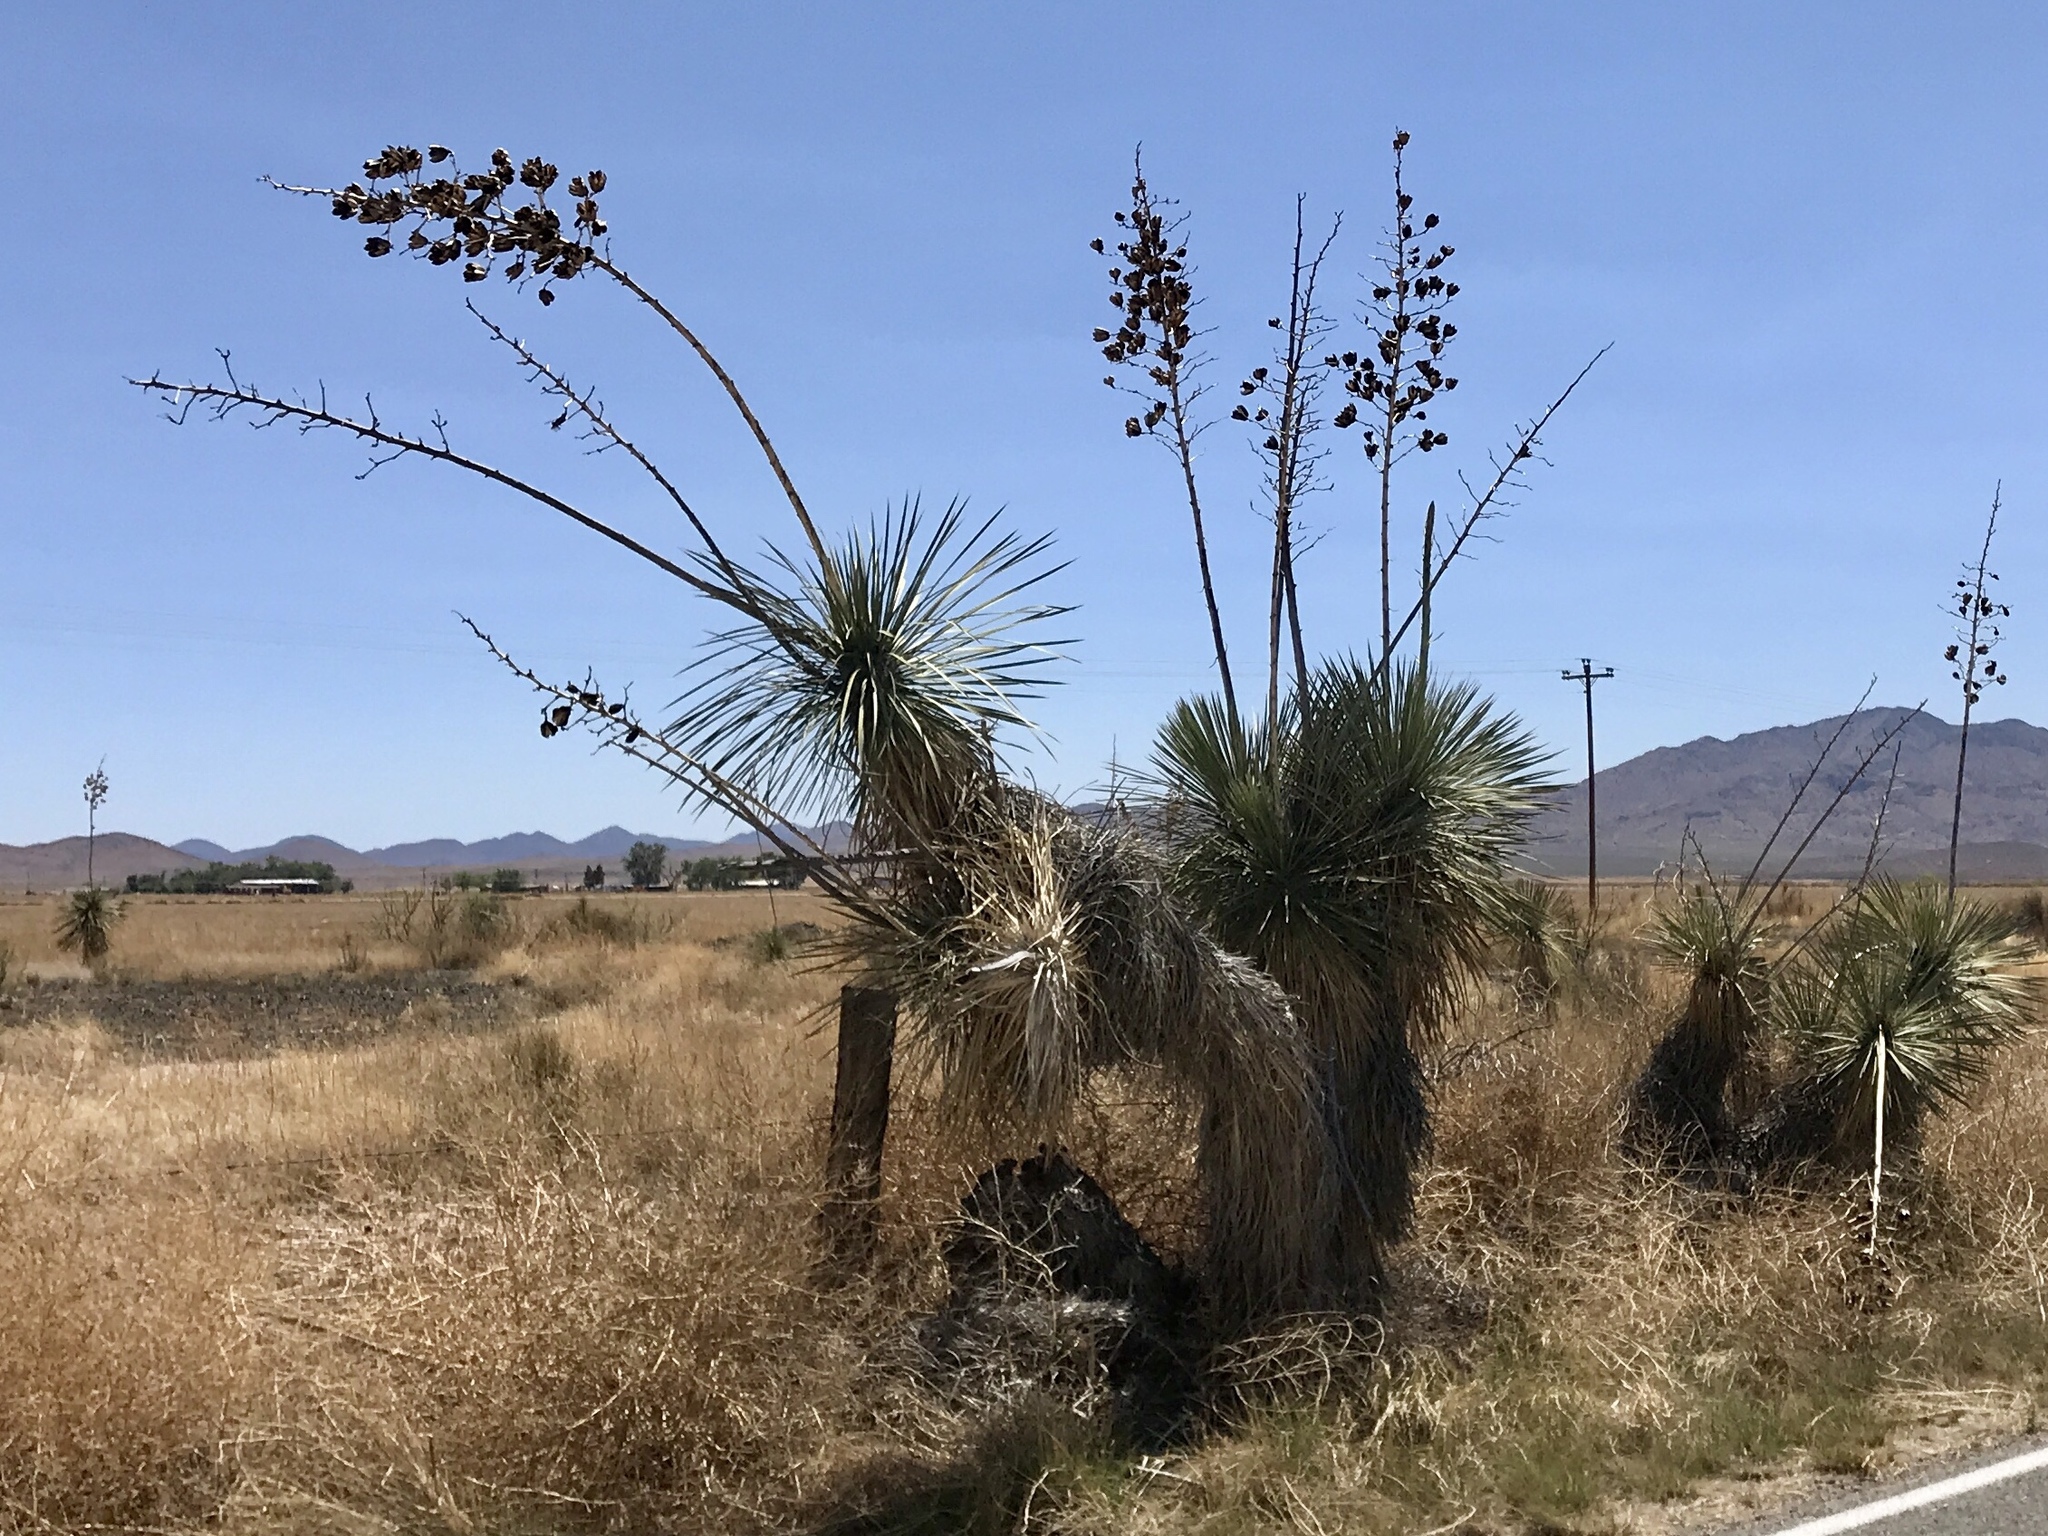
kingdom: Plantae
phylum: Tracheophyta
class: Liliopsida
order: Asparagales
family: Asparagaceae
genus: Yucca
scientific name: Yucca elata
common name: Palmella
